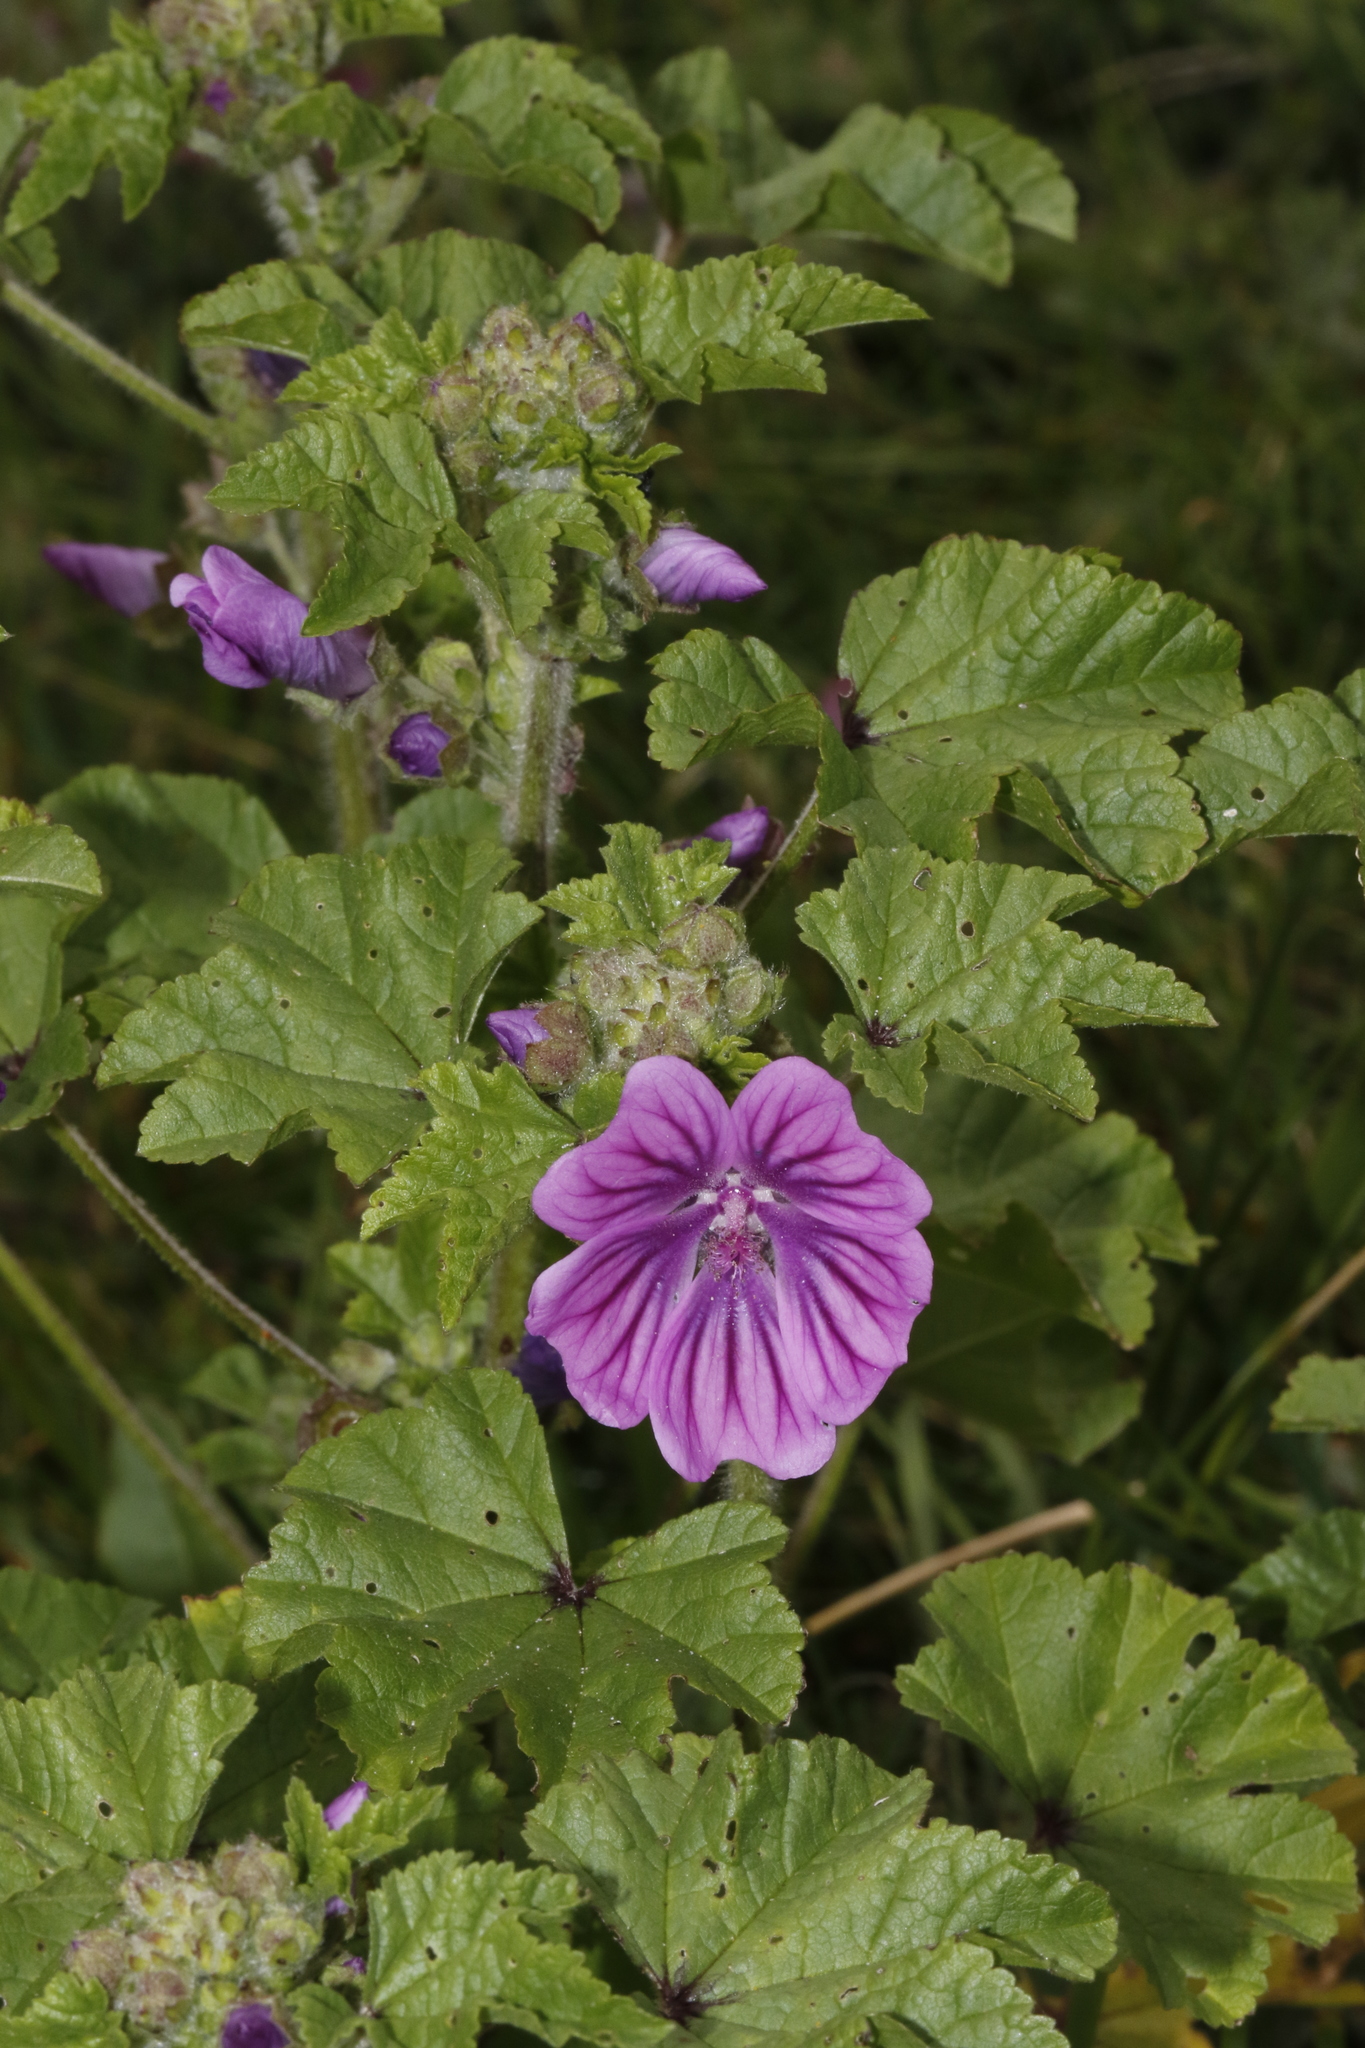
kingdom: Plantae
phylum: Tracheophyta
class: Magnoliopsida
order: Malvales
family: Malvaceae
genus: Malva
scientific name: Malva sylvestris
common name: Common mallow
